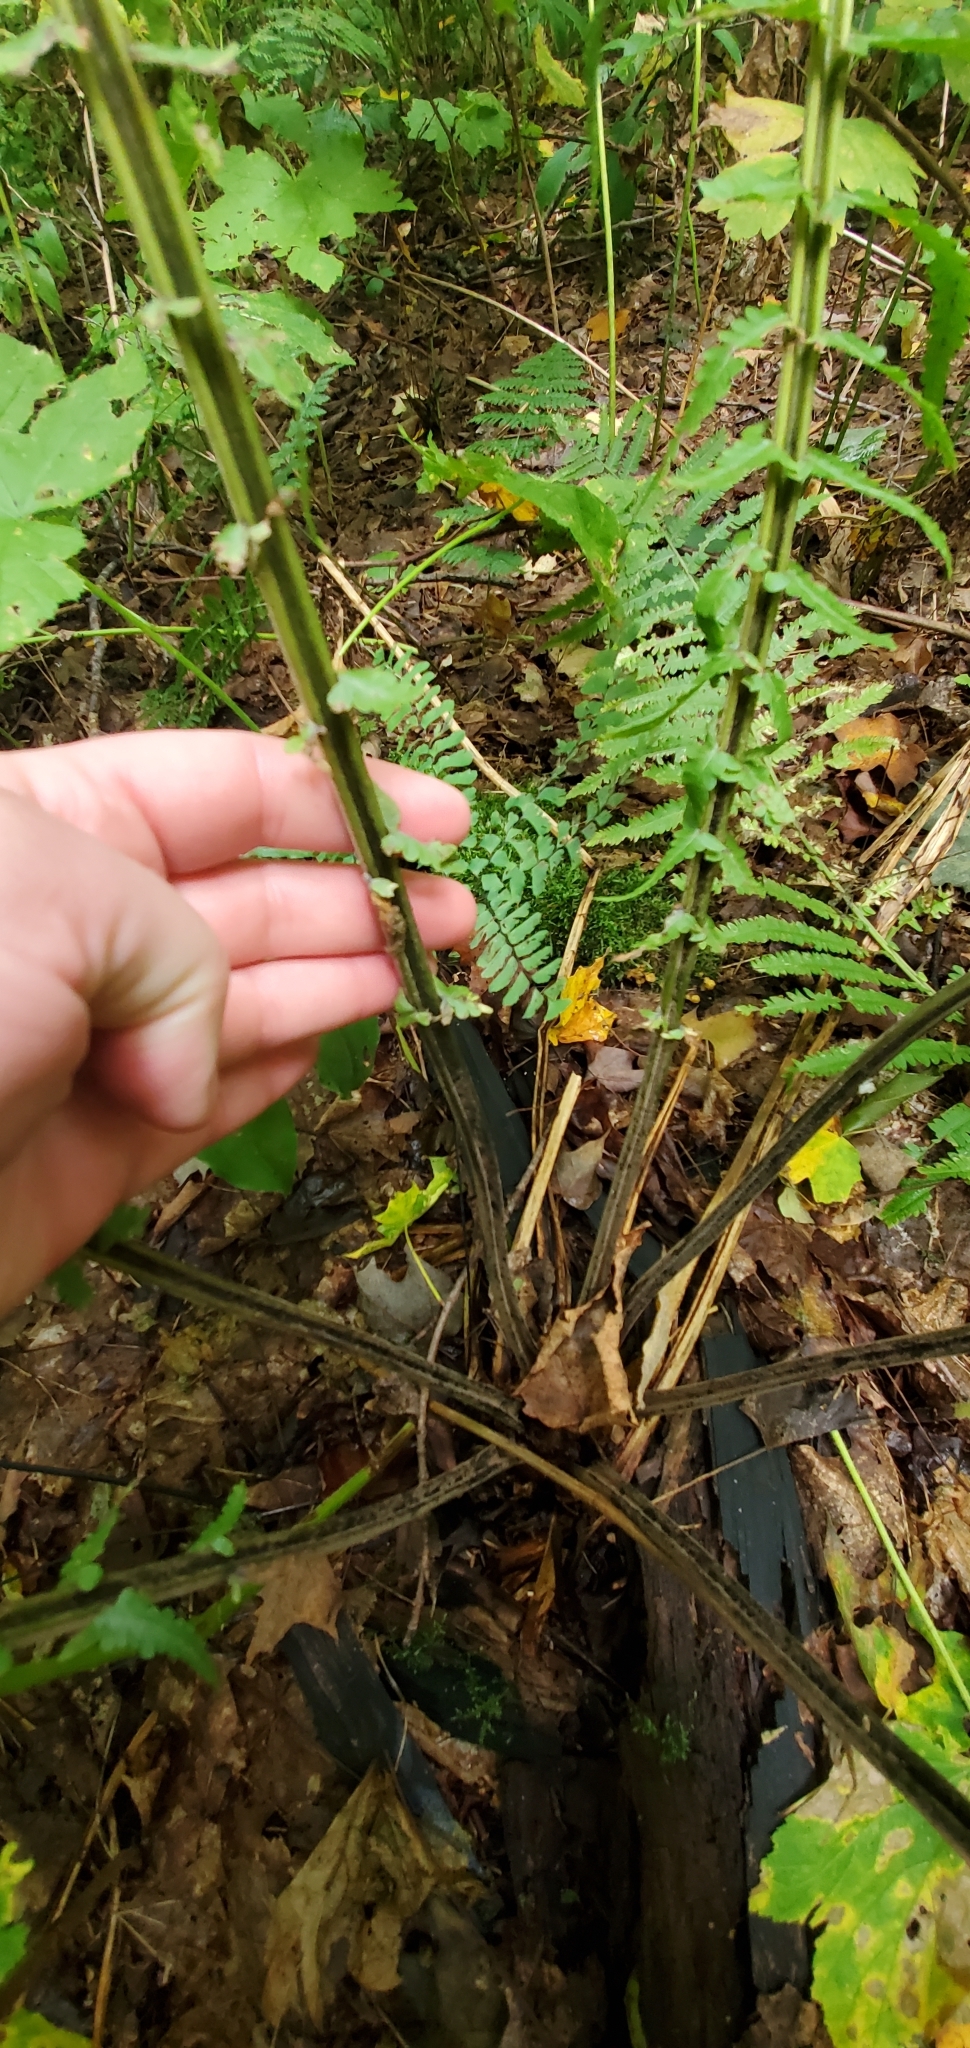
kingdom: Plantae
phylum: Tracheophyta
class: Polypodiopsida
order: Polypodiales
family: Onocleaceae
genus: Matteuccia
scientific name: Matteuccia struthiopteris
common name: Ostrich fern
